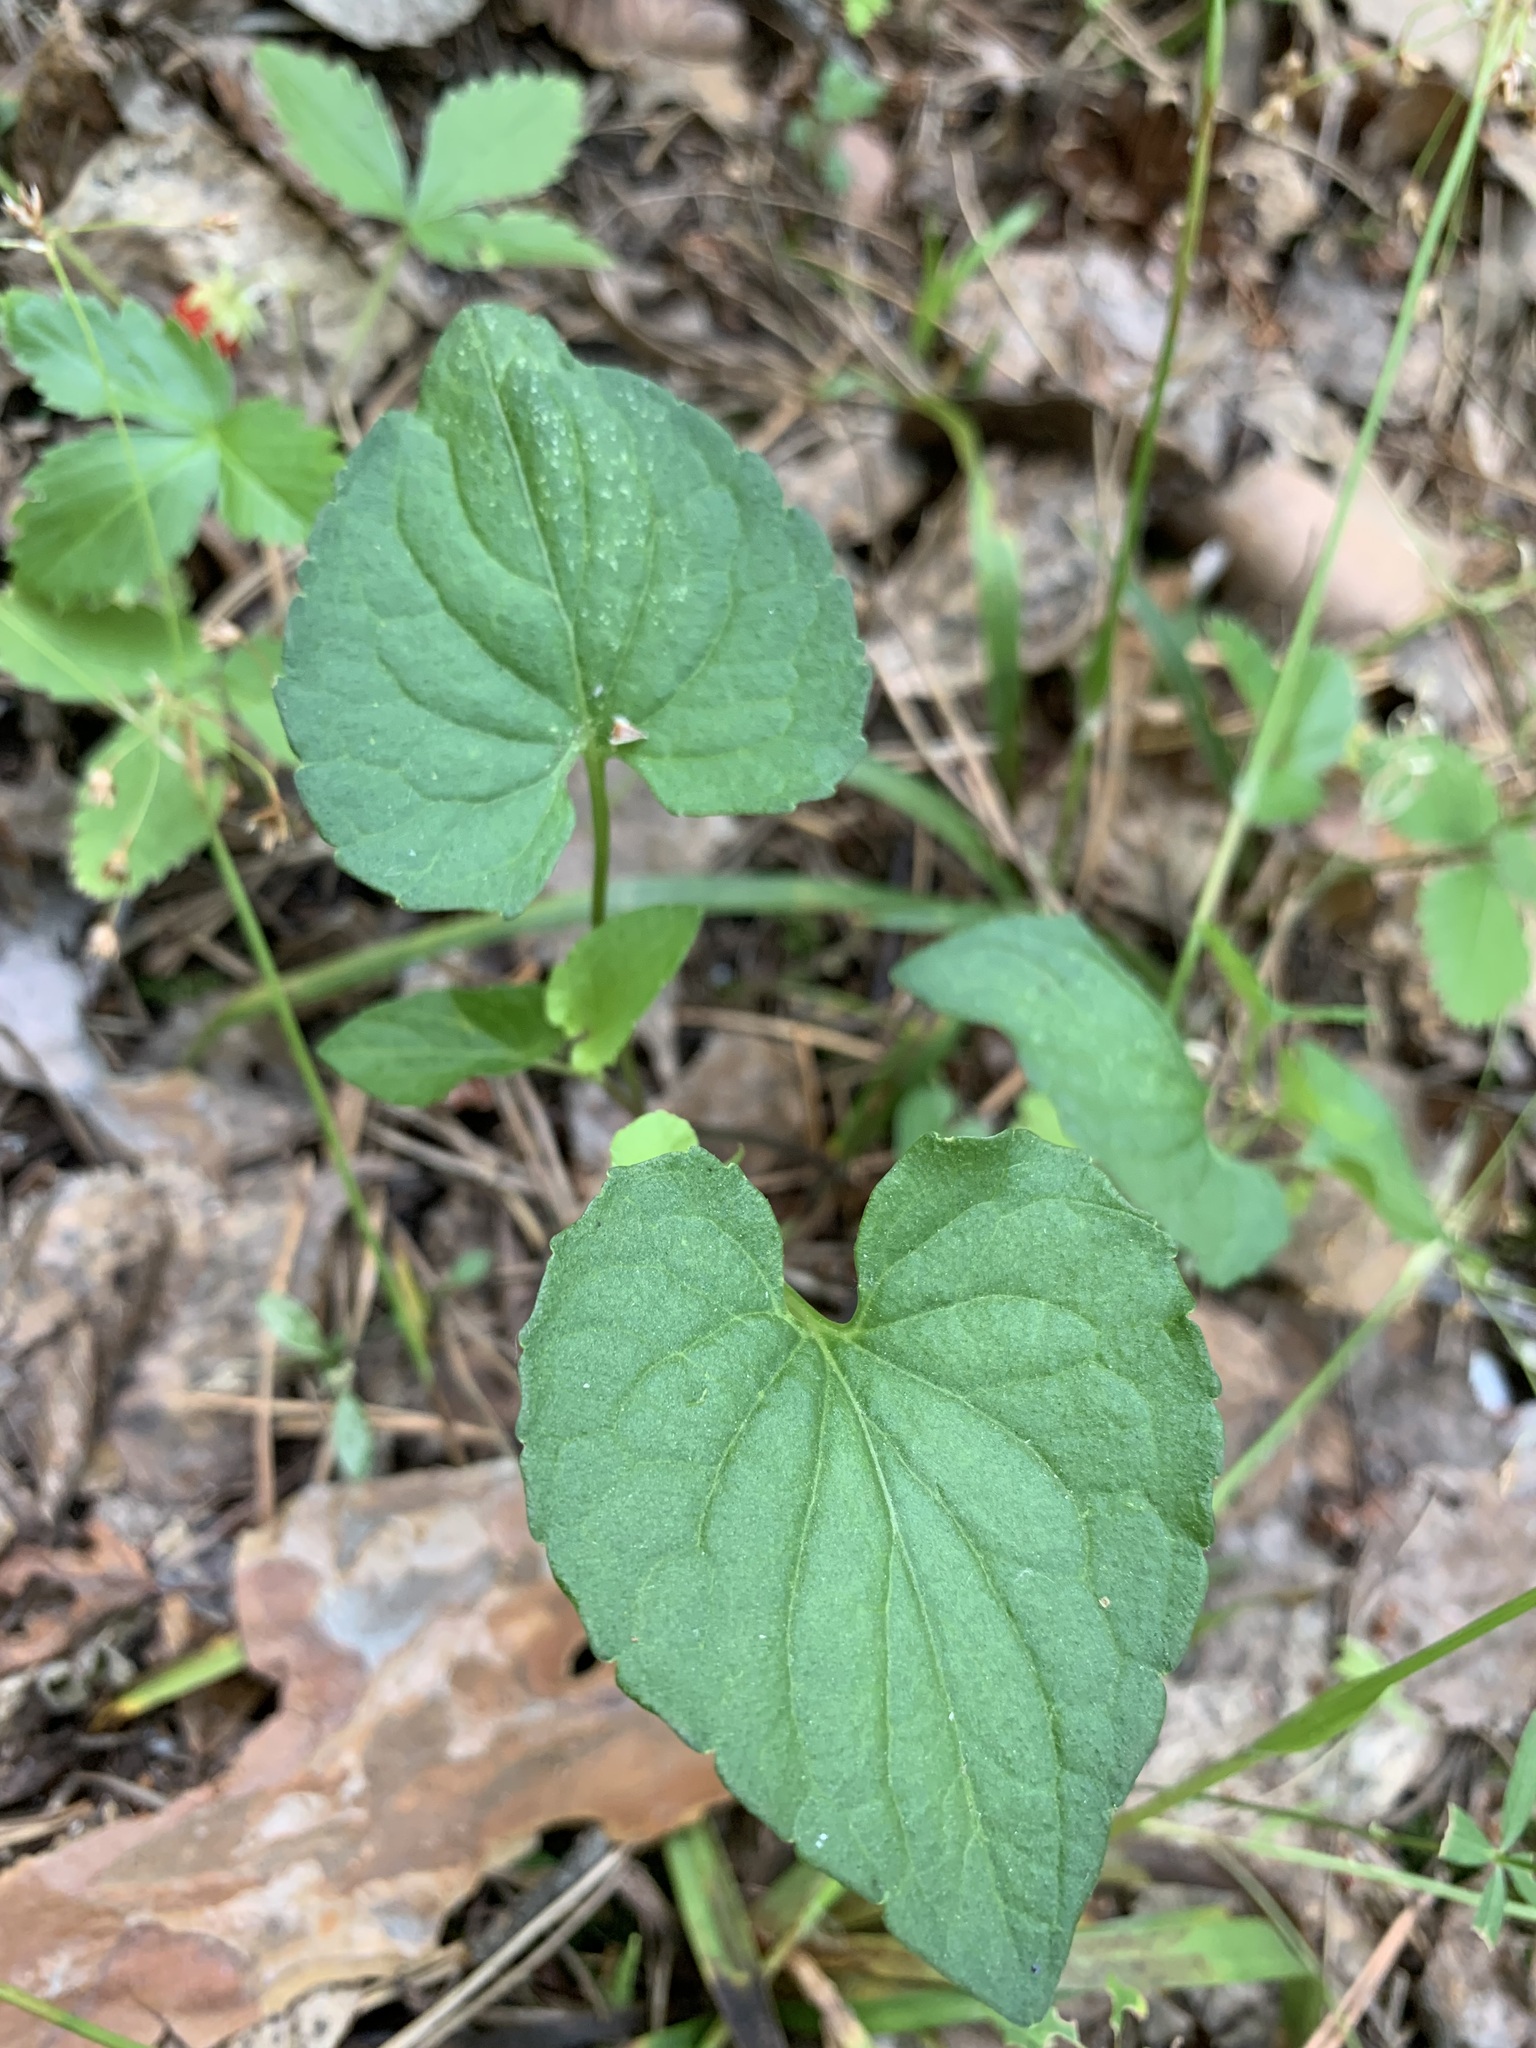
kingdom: Plantae
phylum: Tracheophyta
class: Magnoliopsida
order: Malpighiales
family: Violaceae
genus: Viola
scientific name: Viola
